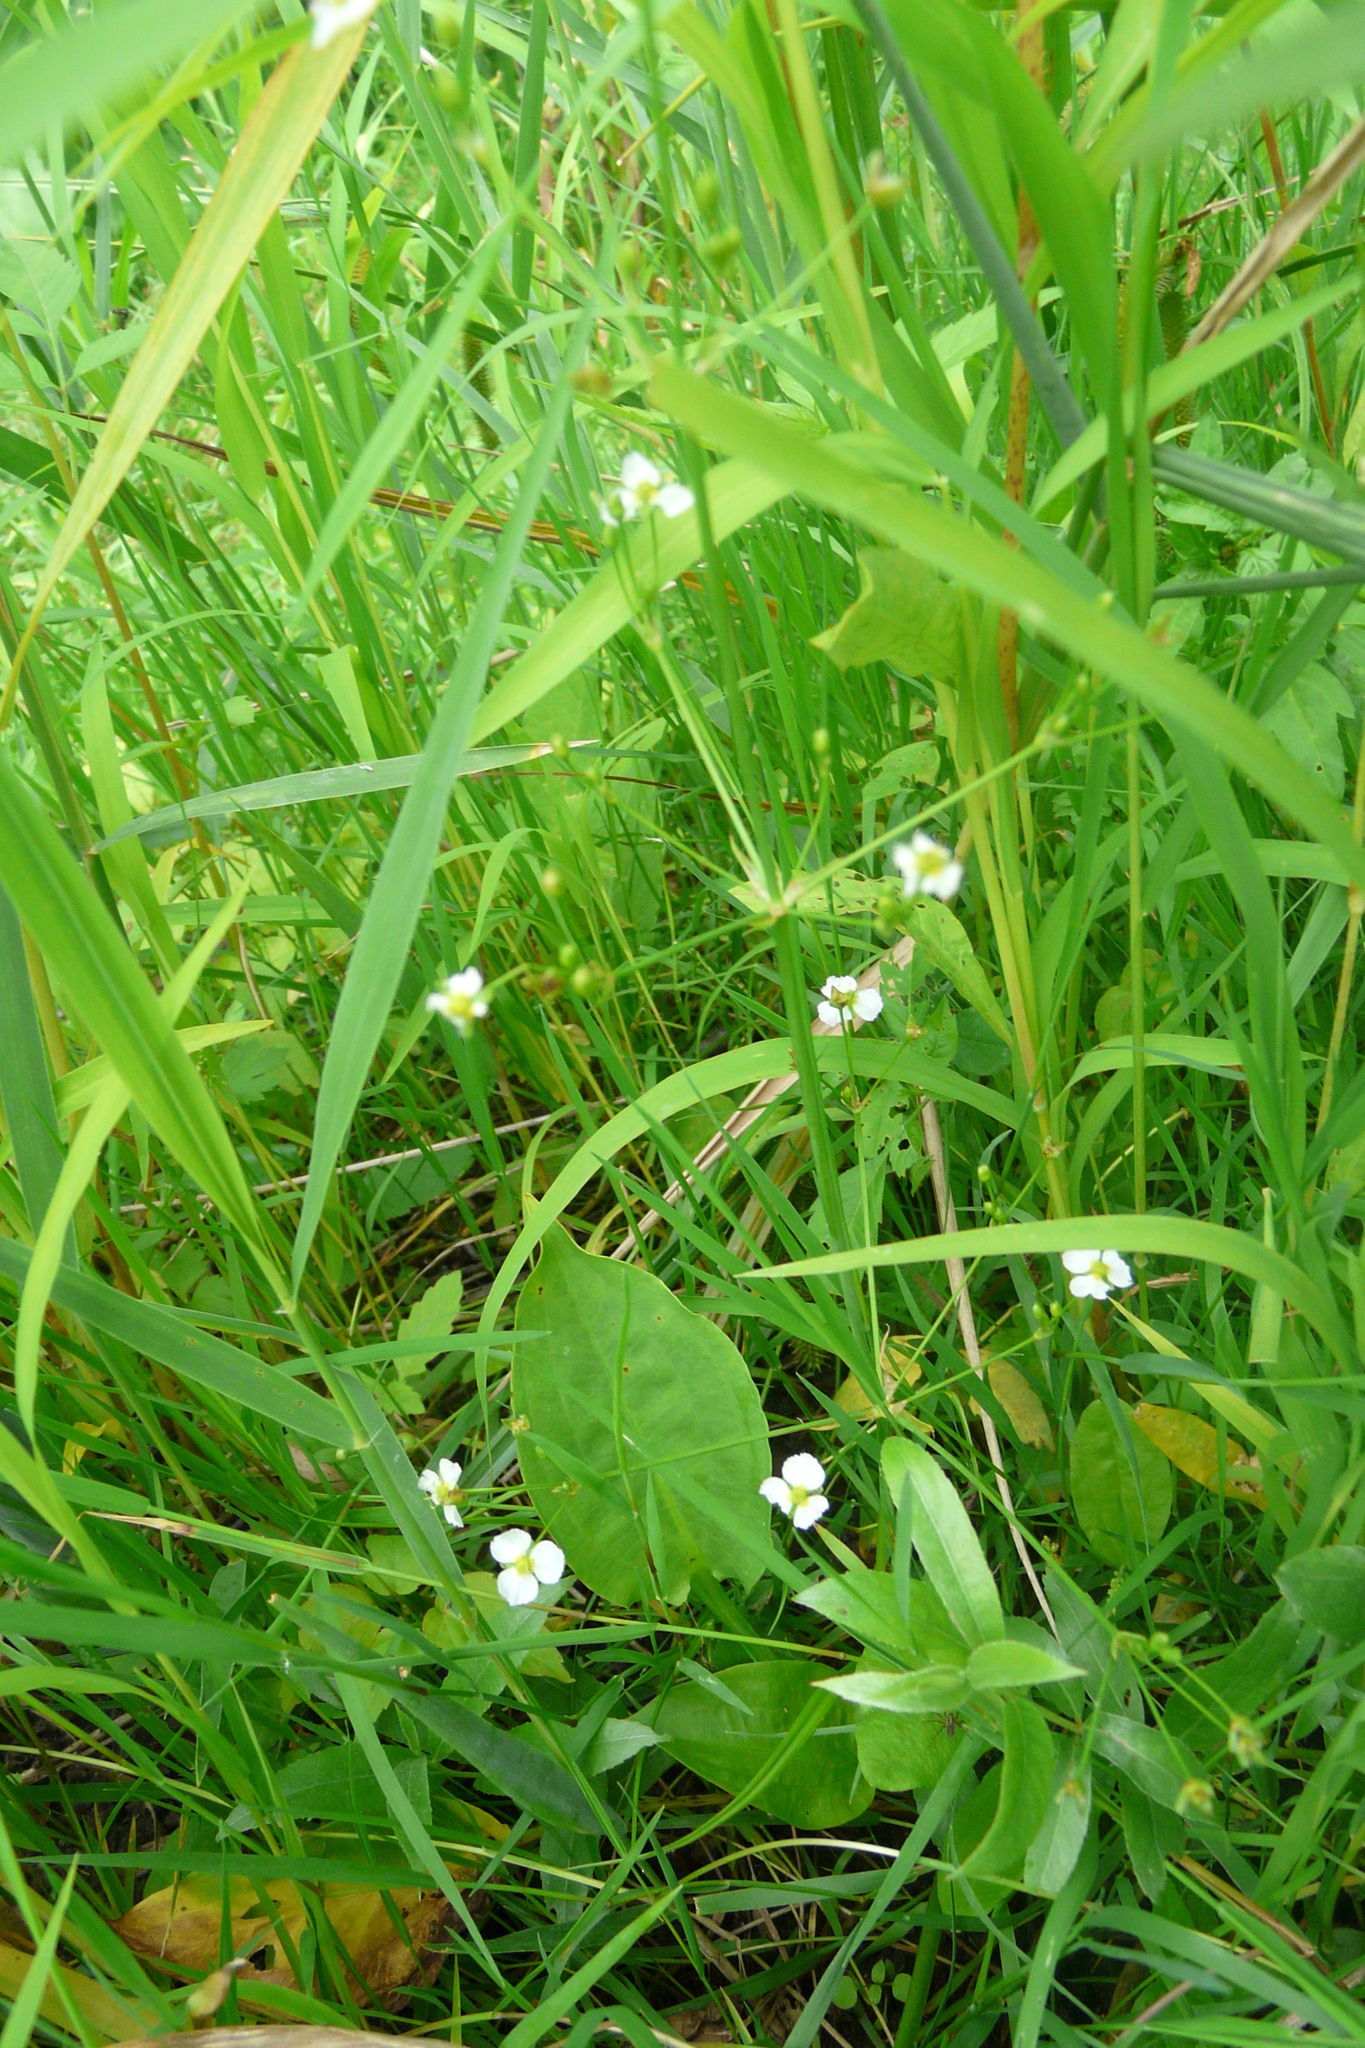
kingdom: Plantae
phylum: Tracheophyta
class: Liliopsida
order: Alismatales
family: Alismataceae
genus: Alisma
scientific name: Alisma plantago-aquatica
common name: Water-plantain
